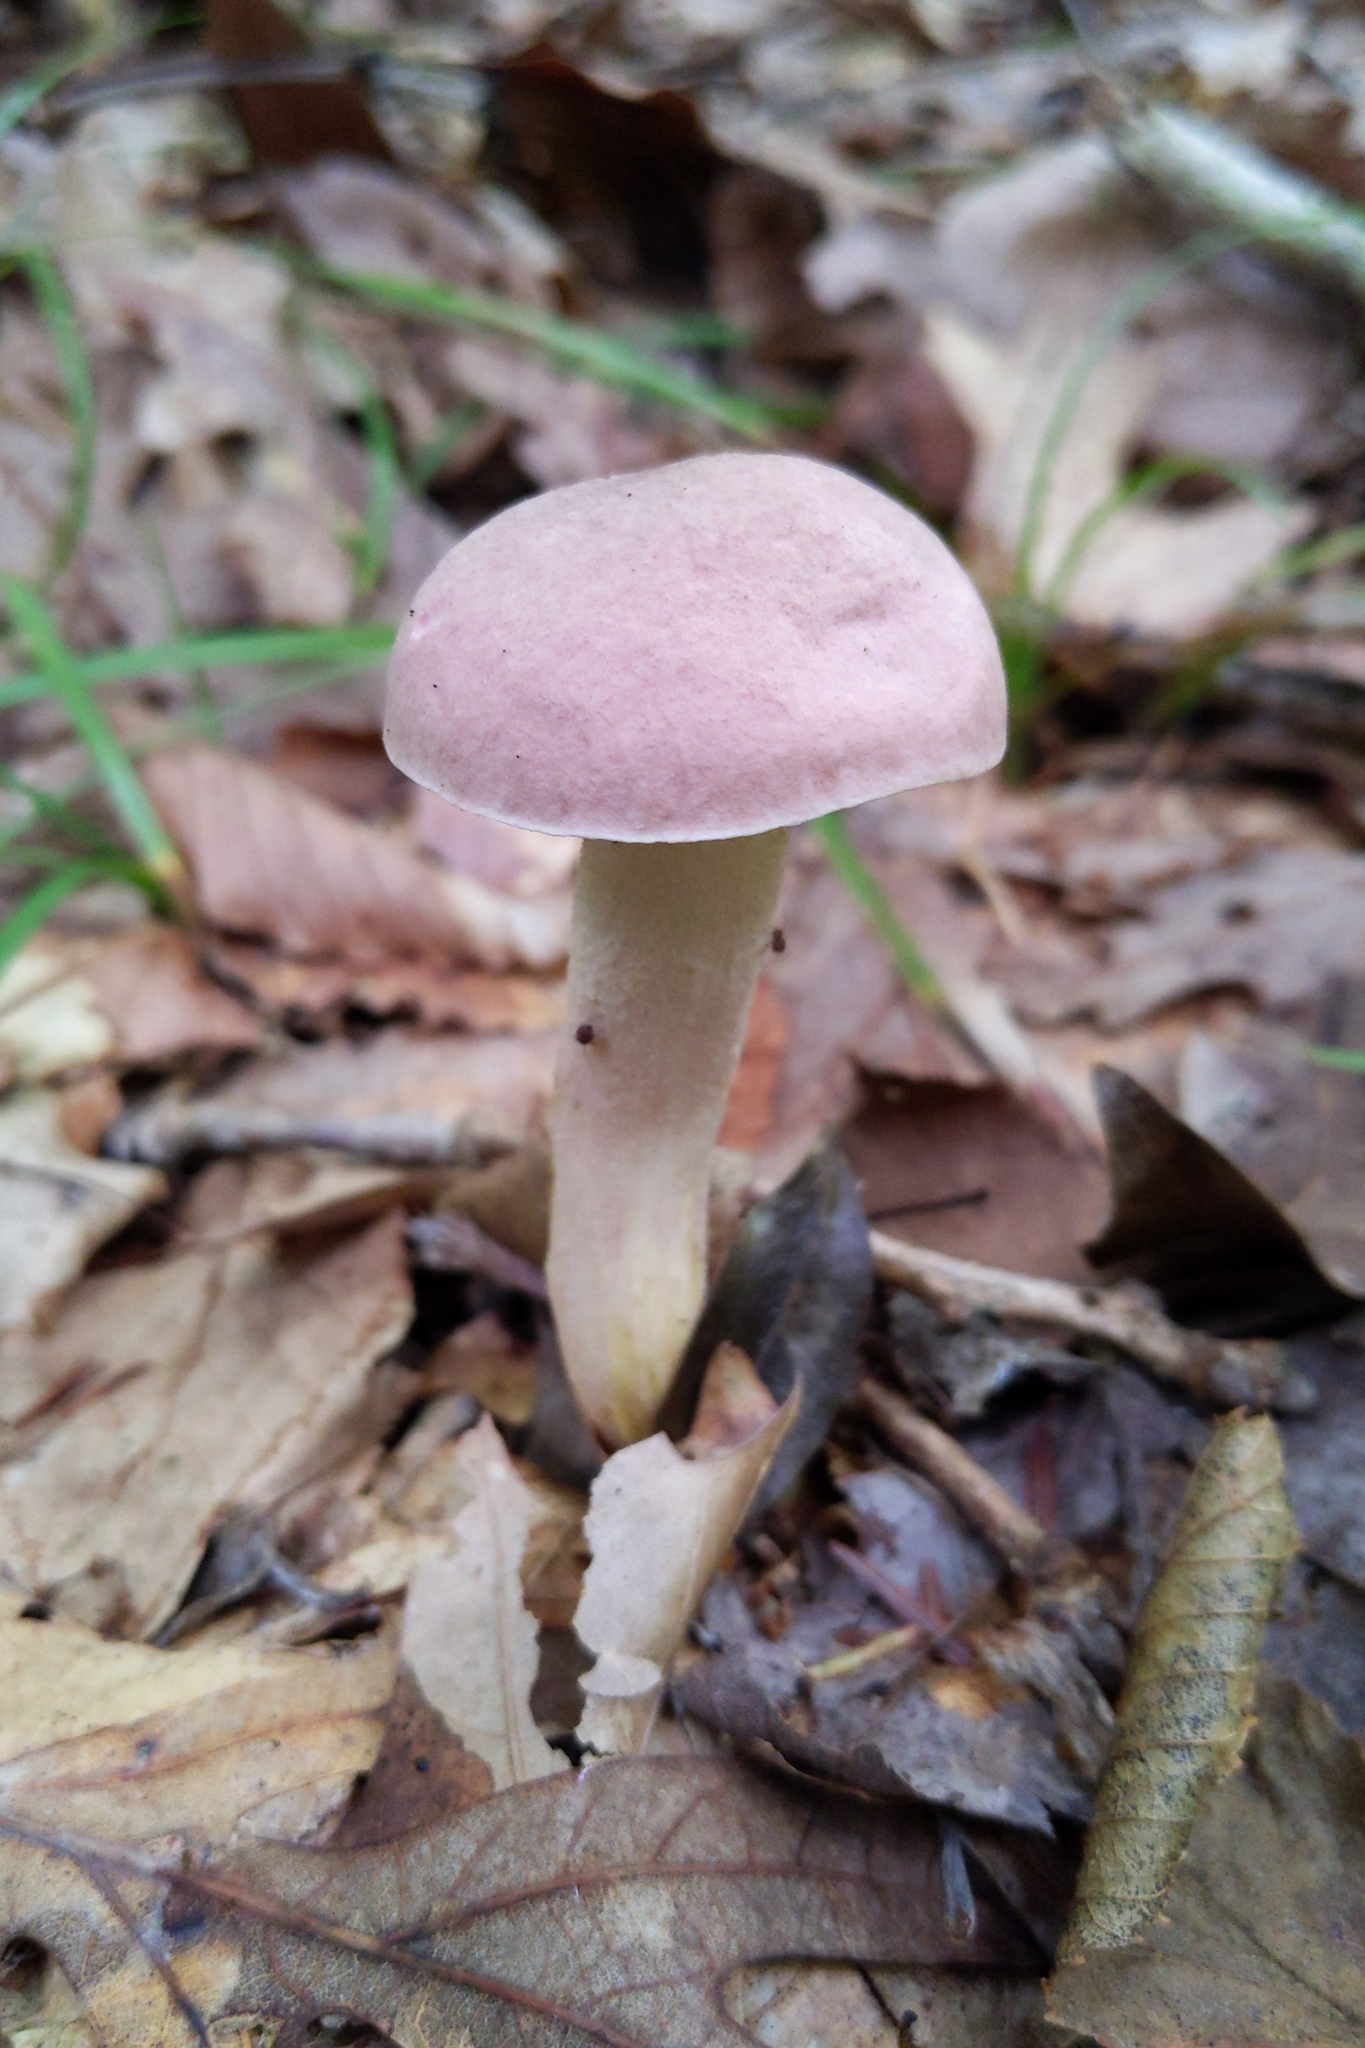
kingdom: Fungi
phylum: Basidiomycota
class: Agaricomycetes
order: Boletales
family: Boletaceae
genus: Harrya
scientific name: Harrya chromipes
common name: Chrome-footed bolete
